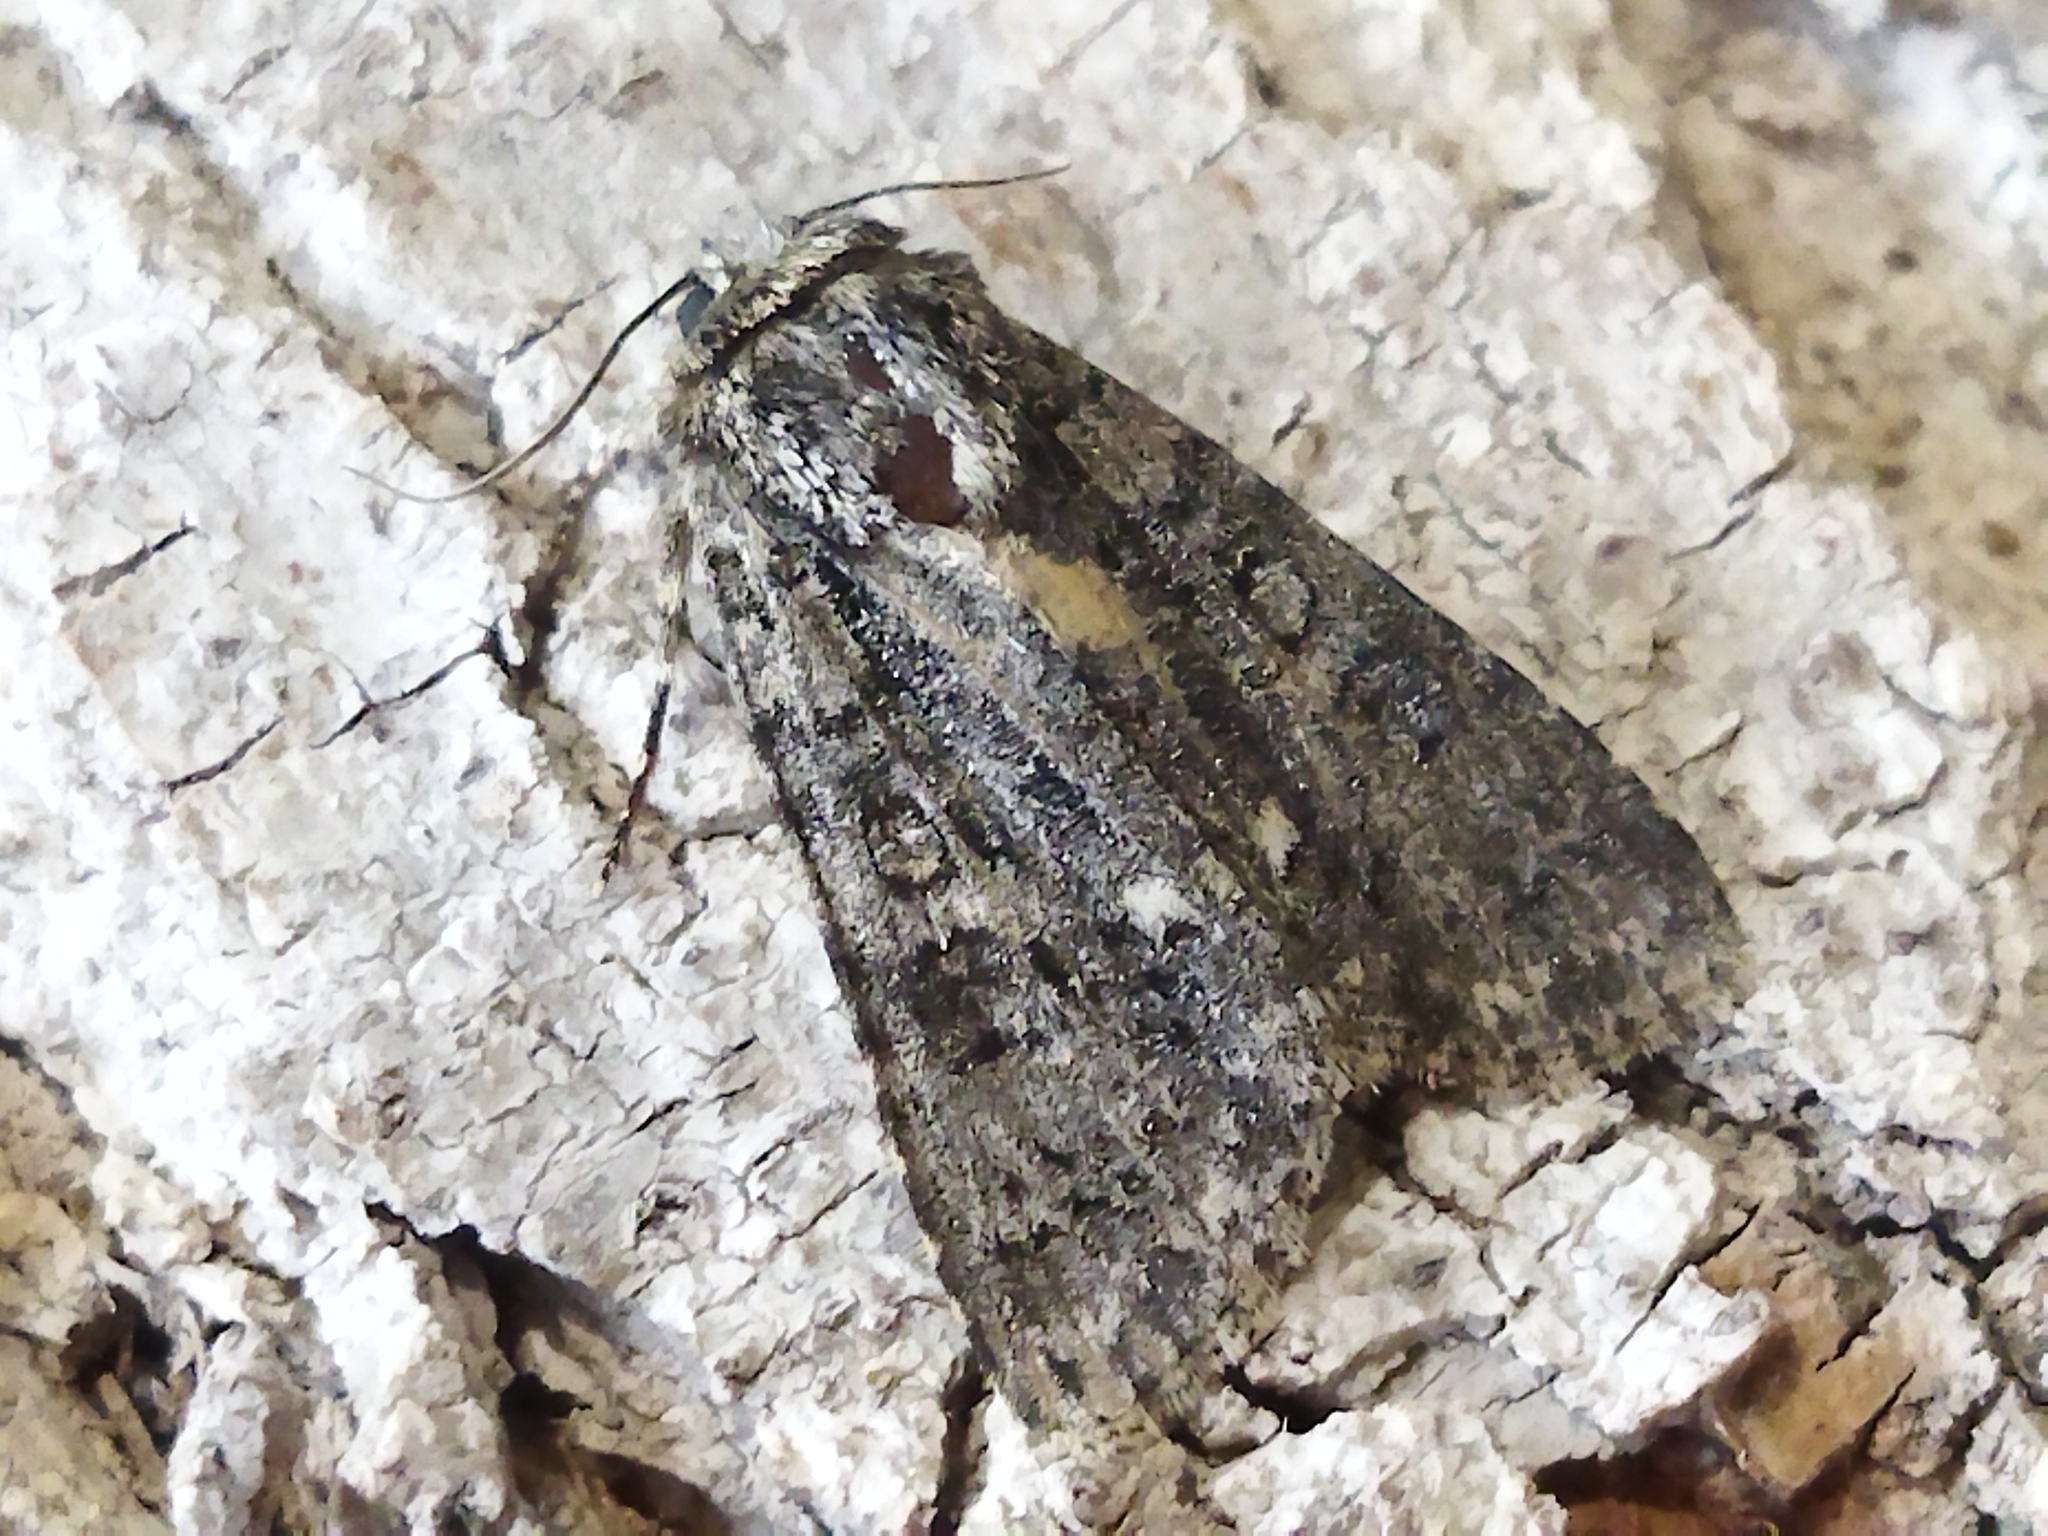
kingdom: Animalia
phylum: Arthropoda
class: Insecta
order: Lepidoptera
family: Noctuidae
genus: Acronicta
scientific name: Acronicta rumicis
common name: Knot grass
